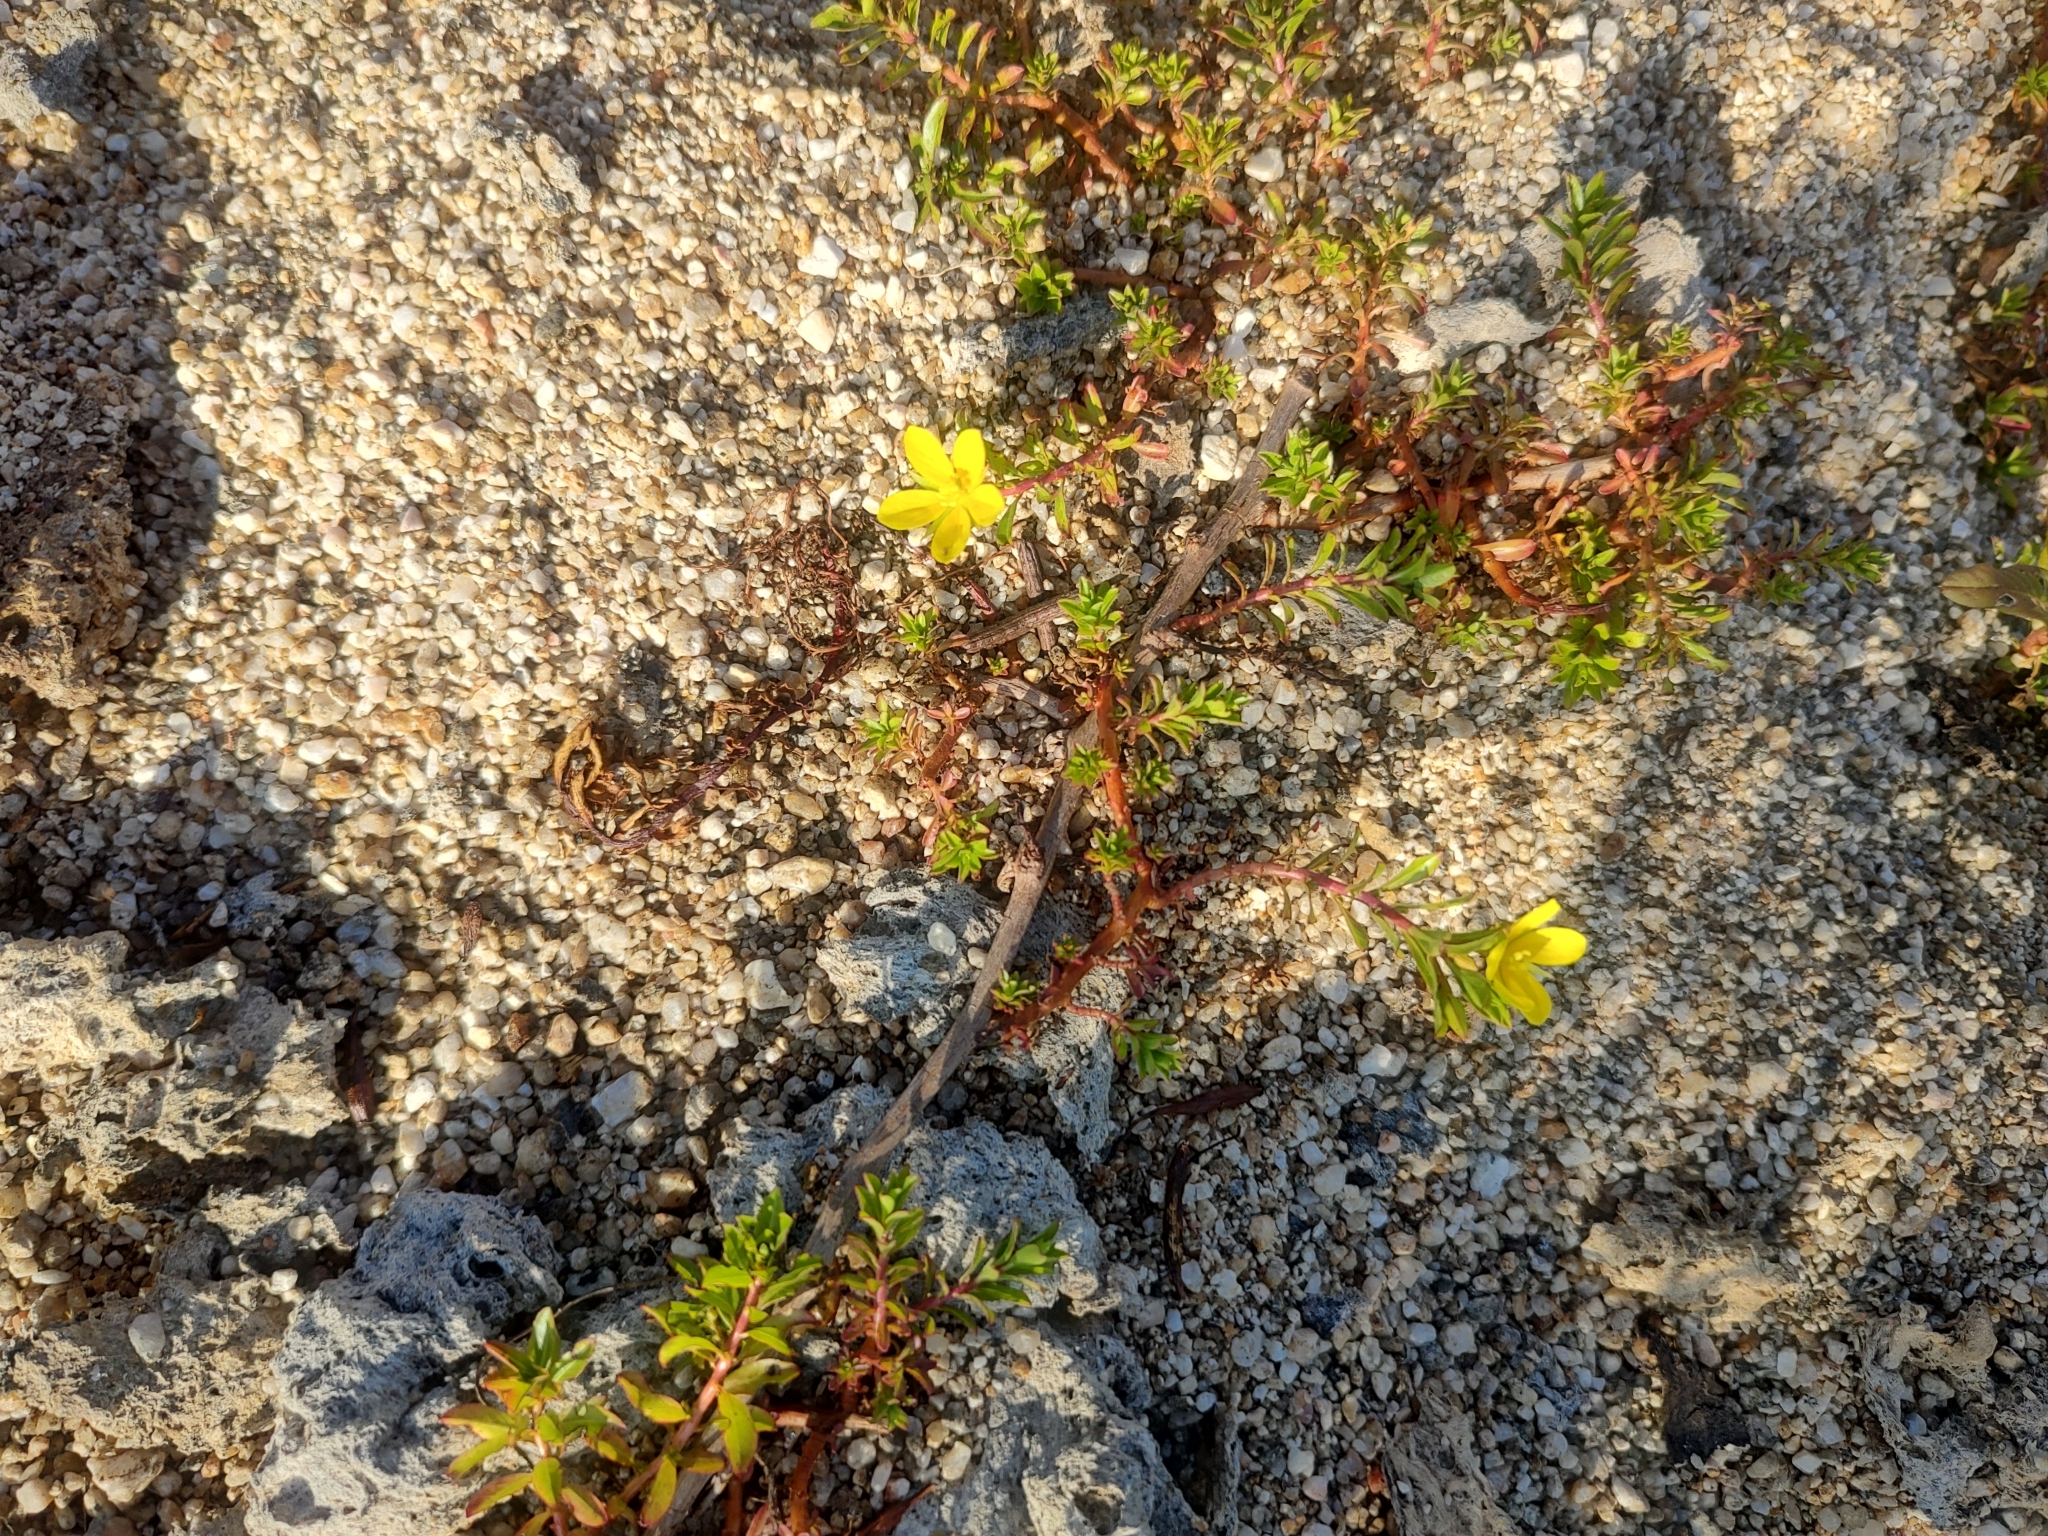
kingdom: Plantae
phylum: Tracheophyta
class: Magnoliopsida
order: Myrtales
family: Onagraceae
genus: Ludwigia
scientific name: Ludwigia peploides
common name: Floating primrose-willow
